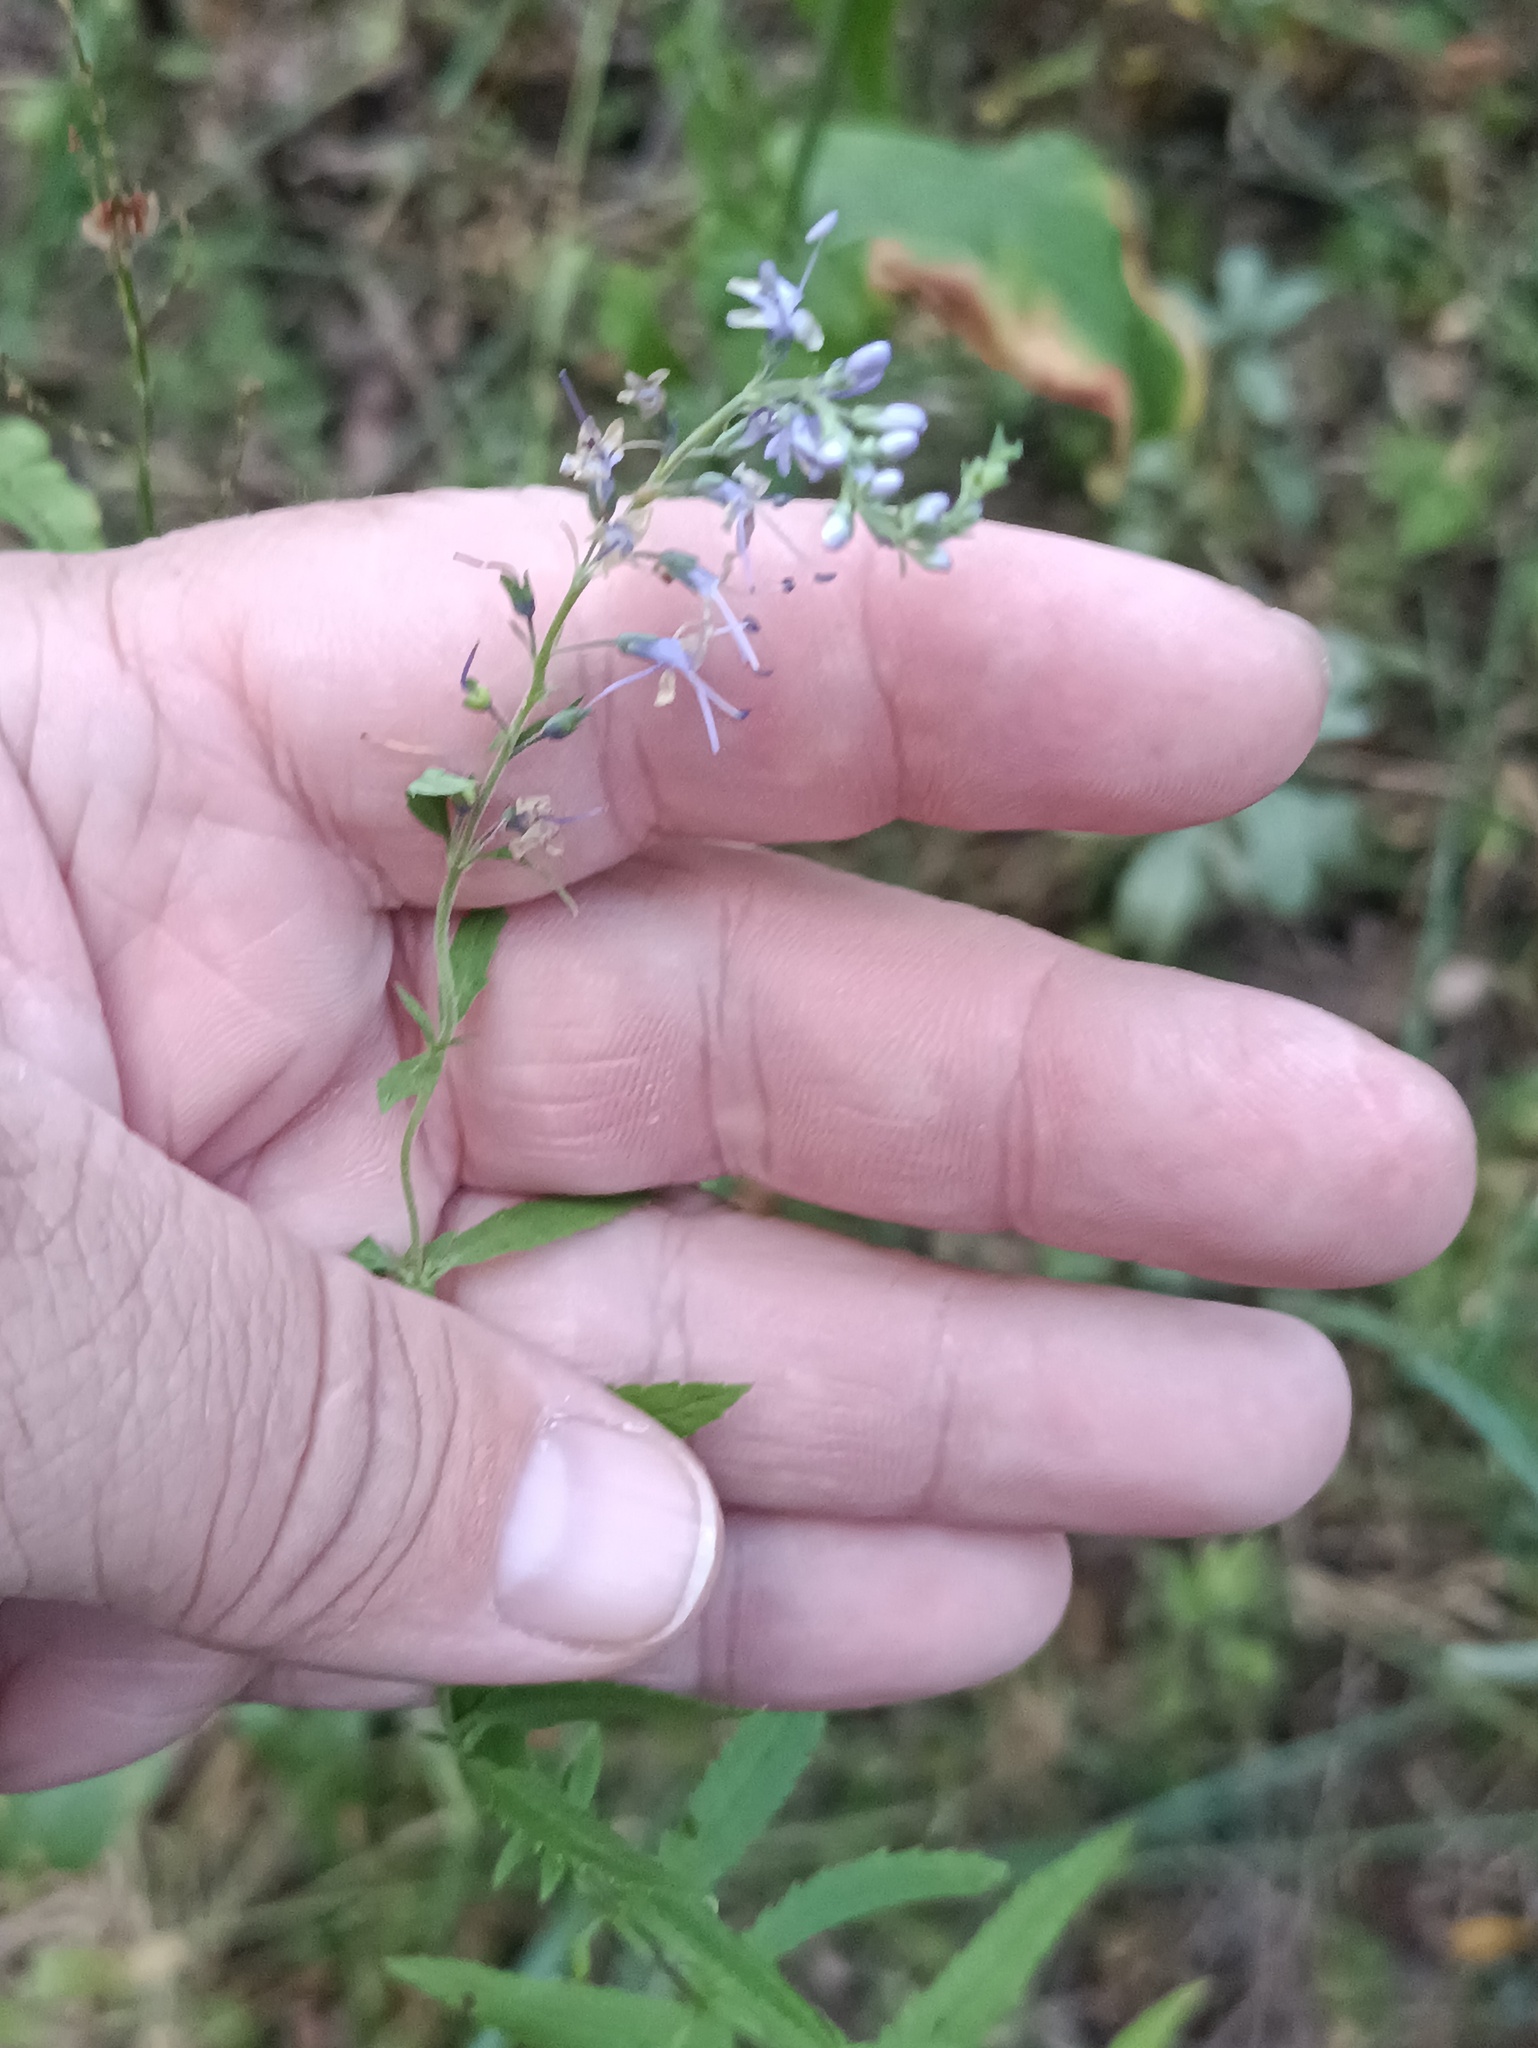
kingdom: Plantae
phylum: Tracheophyta
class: Magnoliopsida
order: Lamiales
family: Plantaginaceae
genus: Veronica
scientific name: Veronica longifolia
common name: Garden speedwell
